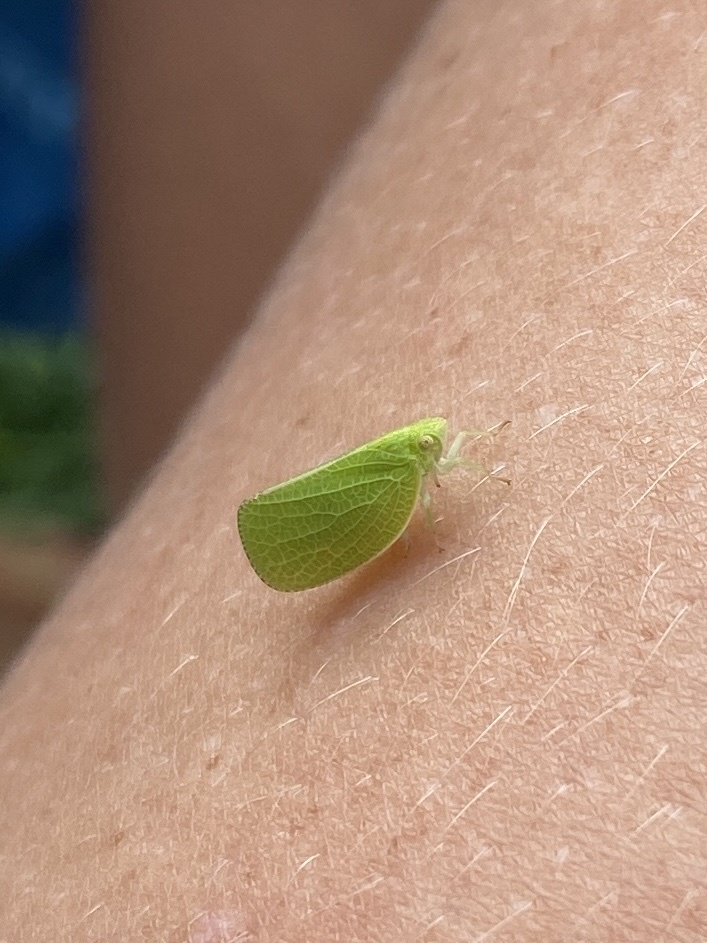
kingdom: Animalia
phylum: Arthropoda
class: Insecta
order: Hemiptera
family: Acanaloniidae
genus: Acanalonia
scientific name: Acanalonia conica
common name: Green cone-headed planthopper
